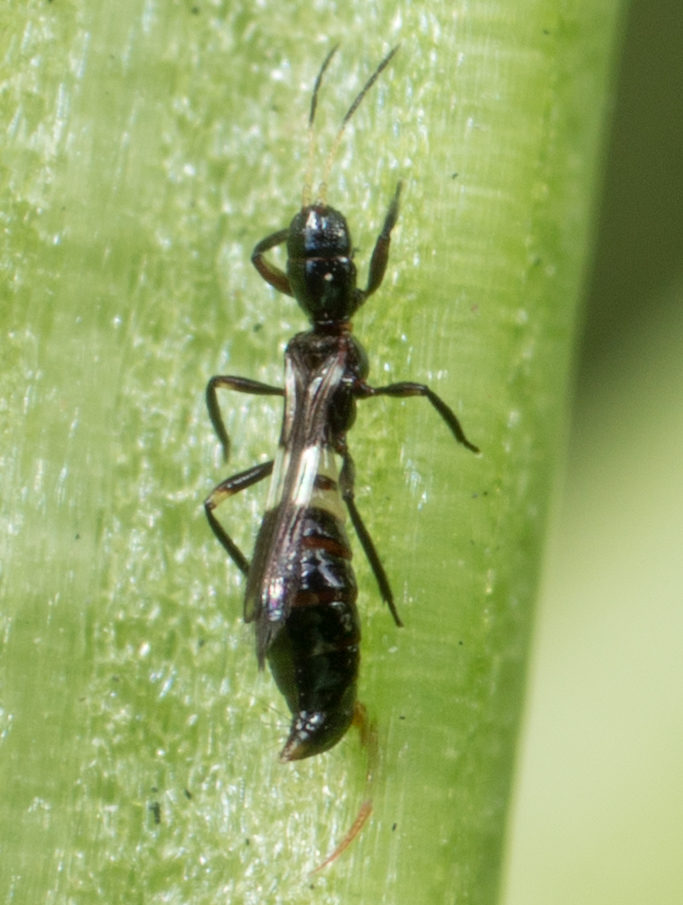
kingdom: Animalia
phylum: Arthropoda
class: Insecta
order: Thysanoptera
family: Aeolothripidae
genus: Franklinothrips
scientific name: Franklinothrips vespiformis
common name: Banded thrip
